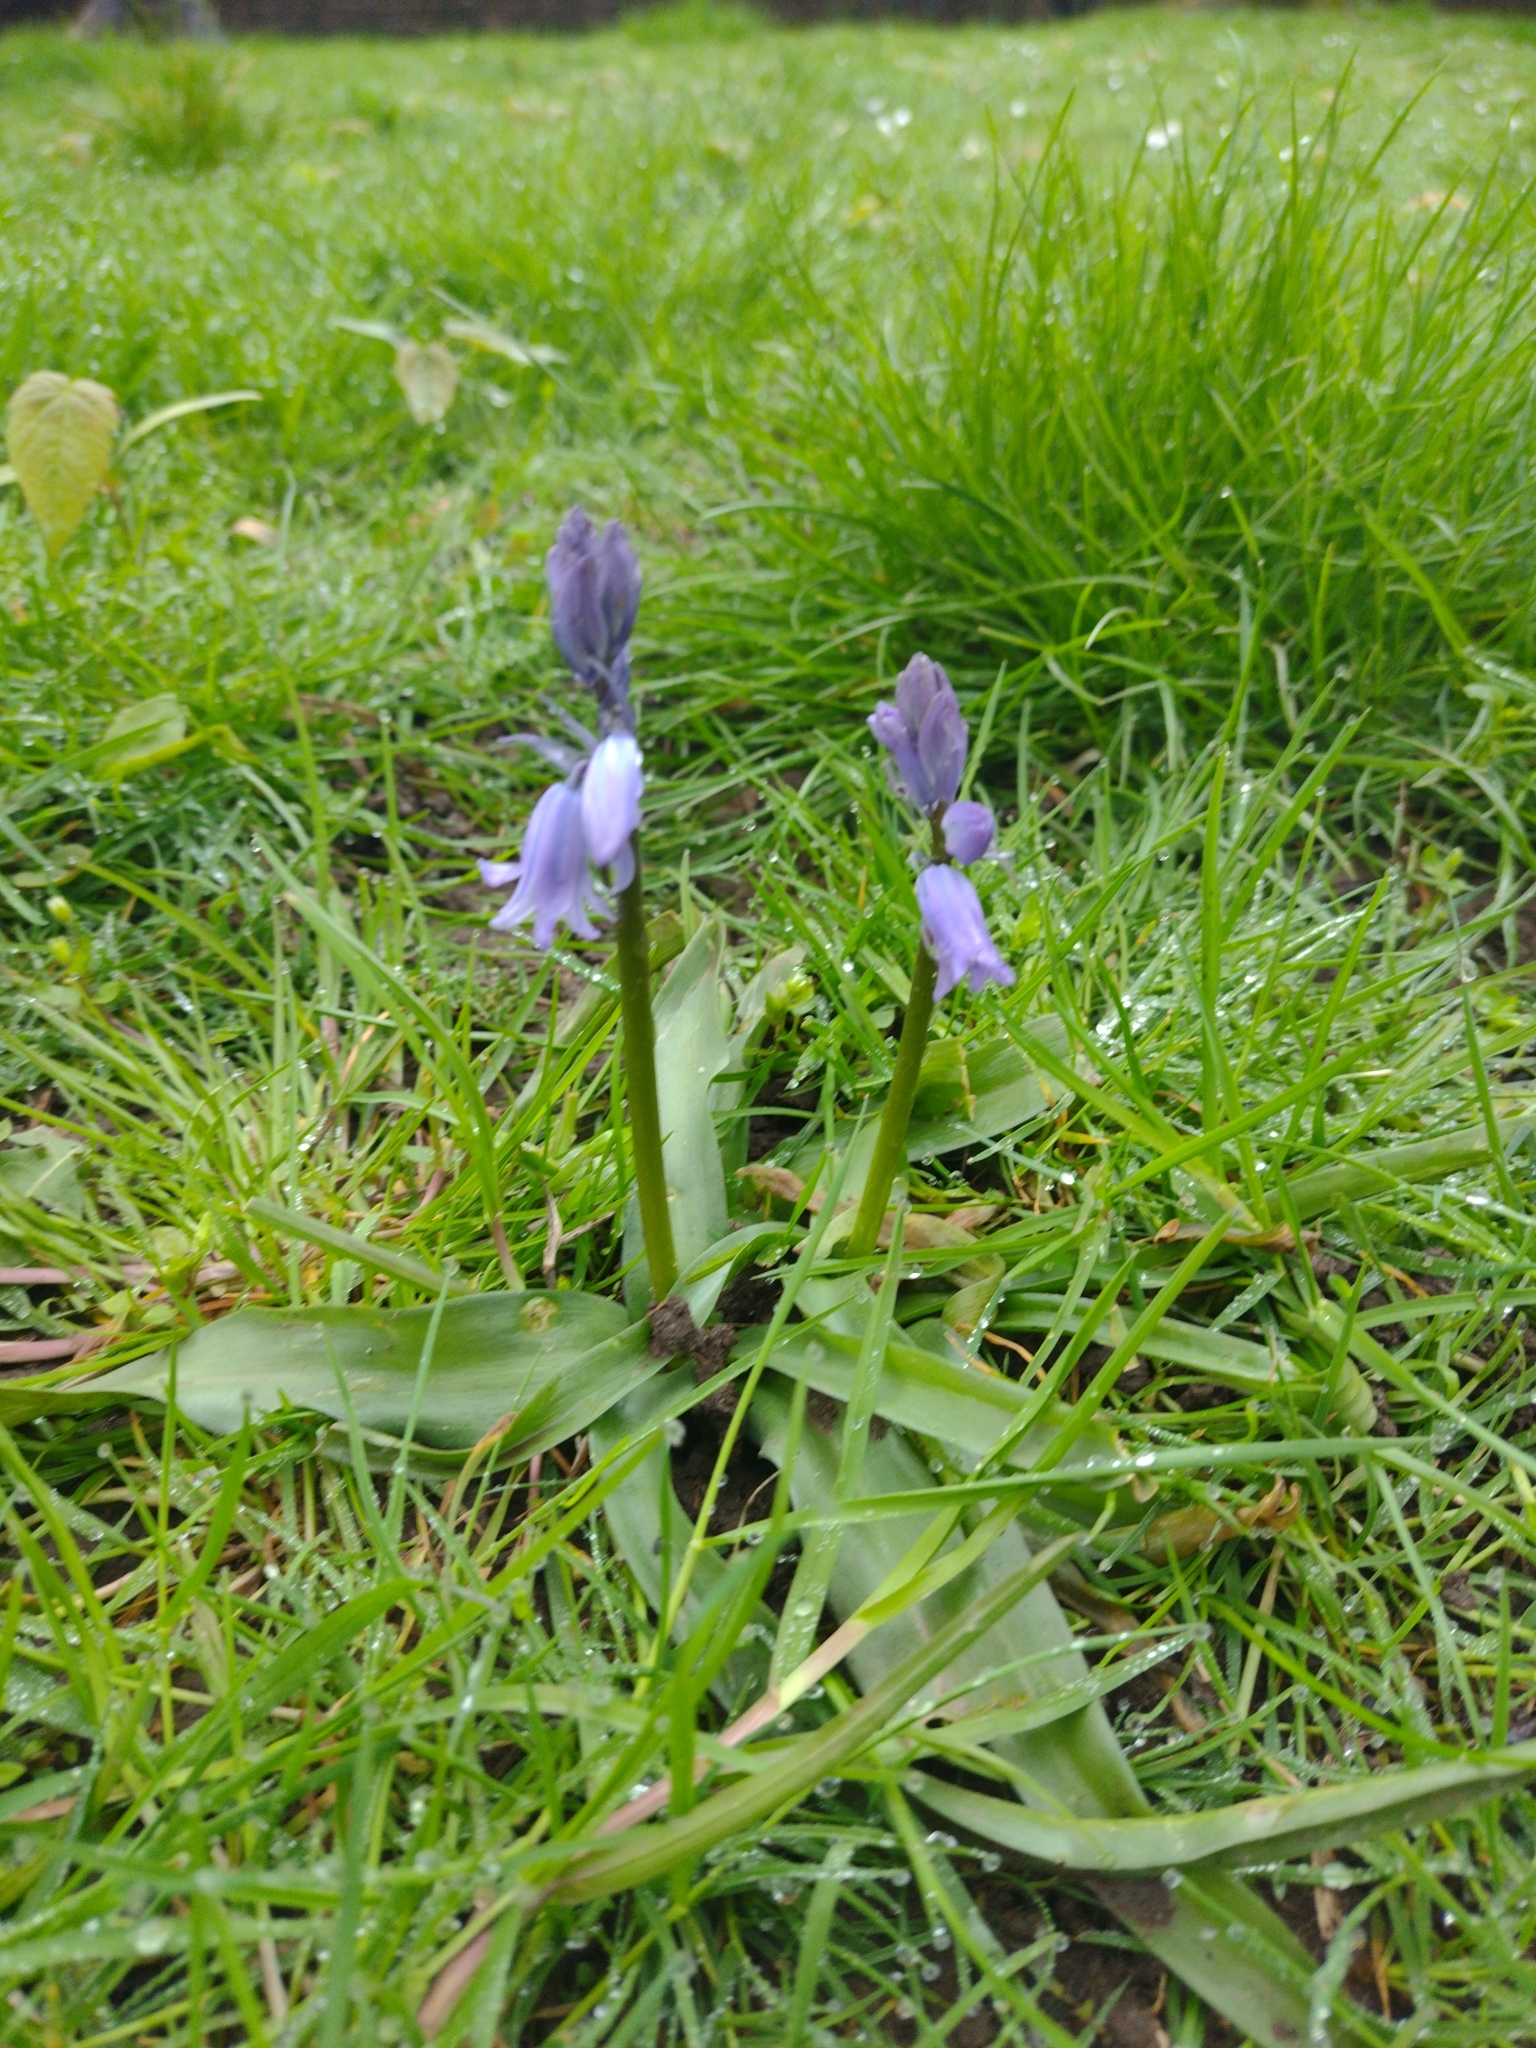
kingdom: Plantae
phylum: Tracheophyta
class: Liliopsida
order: Asparagales
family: Asparagaceae
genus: Hyacinthoides
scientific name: Hyacinthoides massartiana
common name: Hyacinthoides
